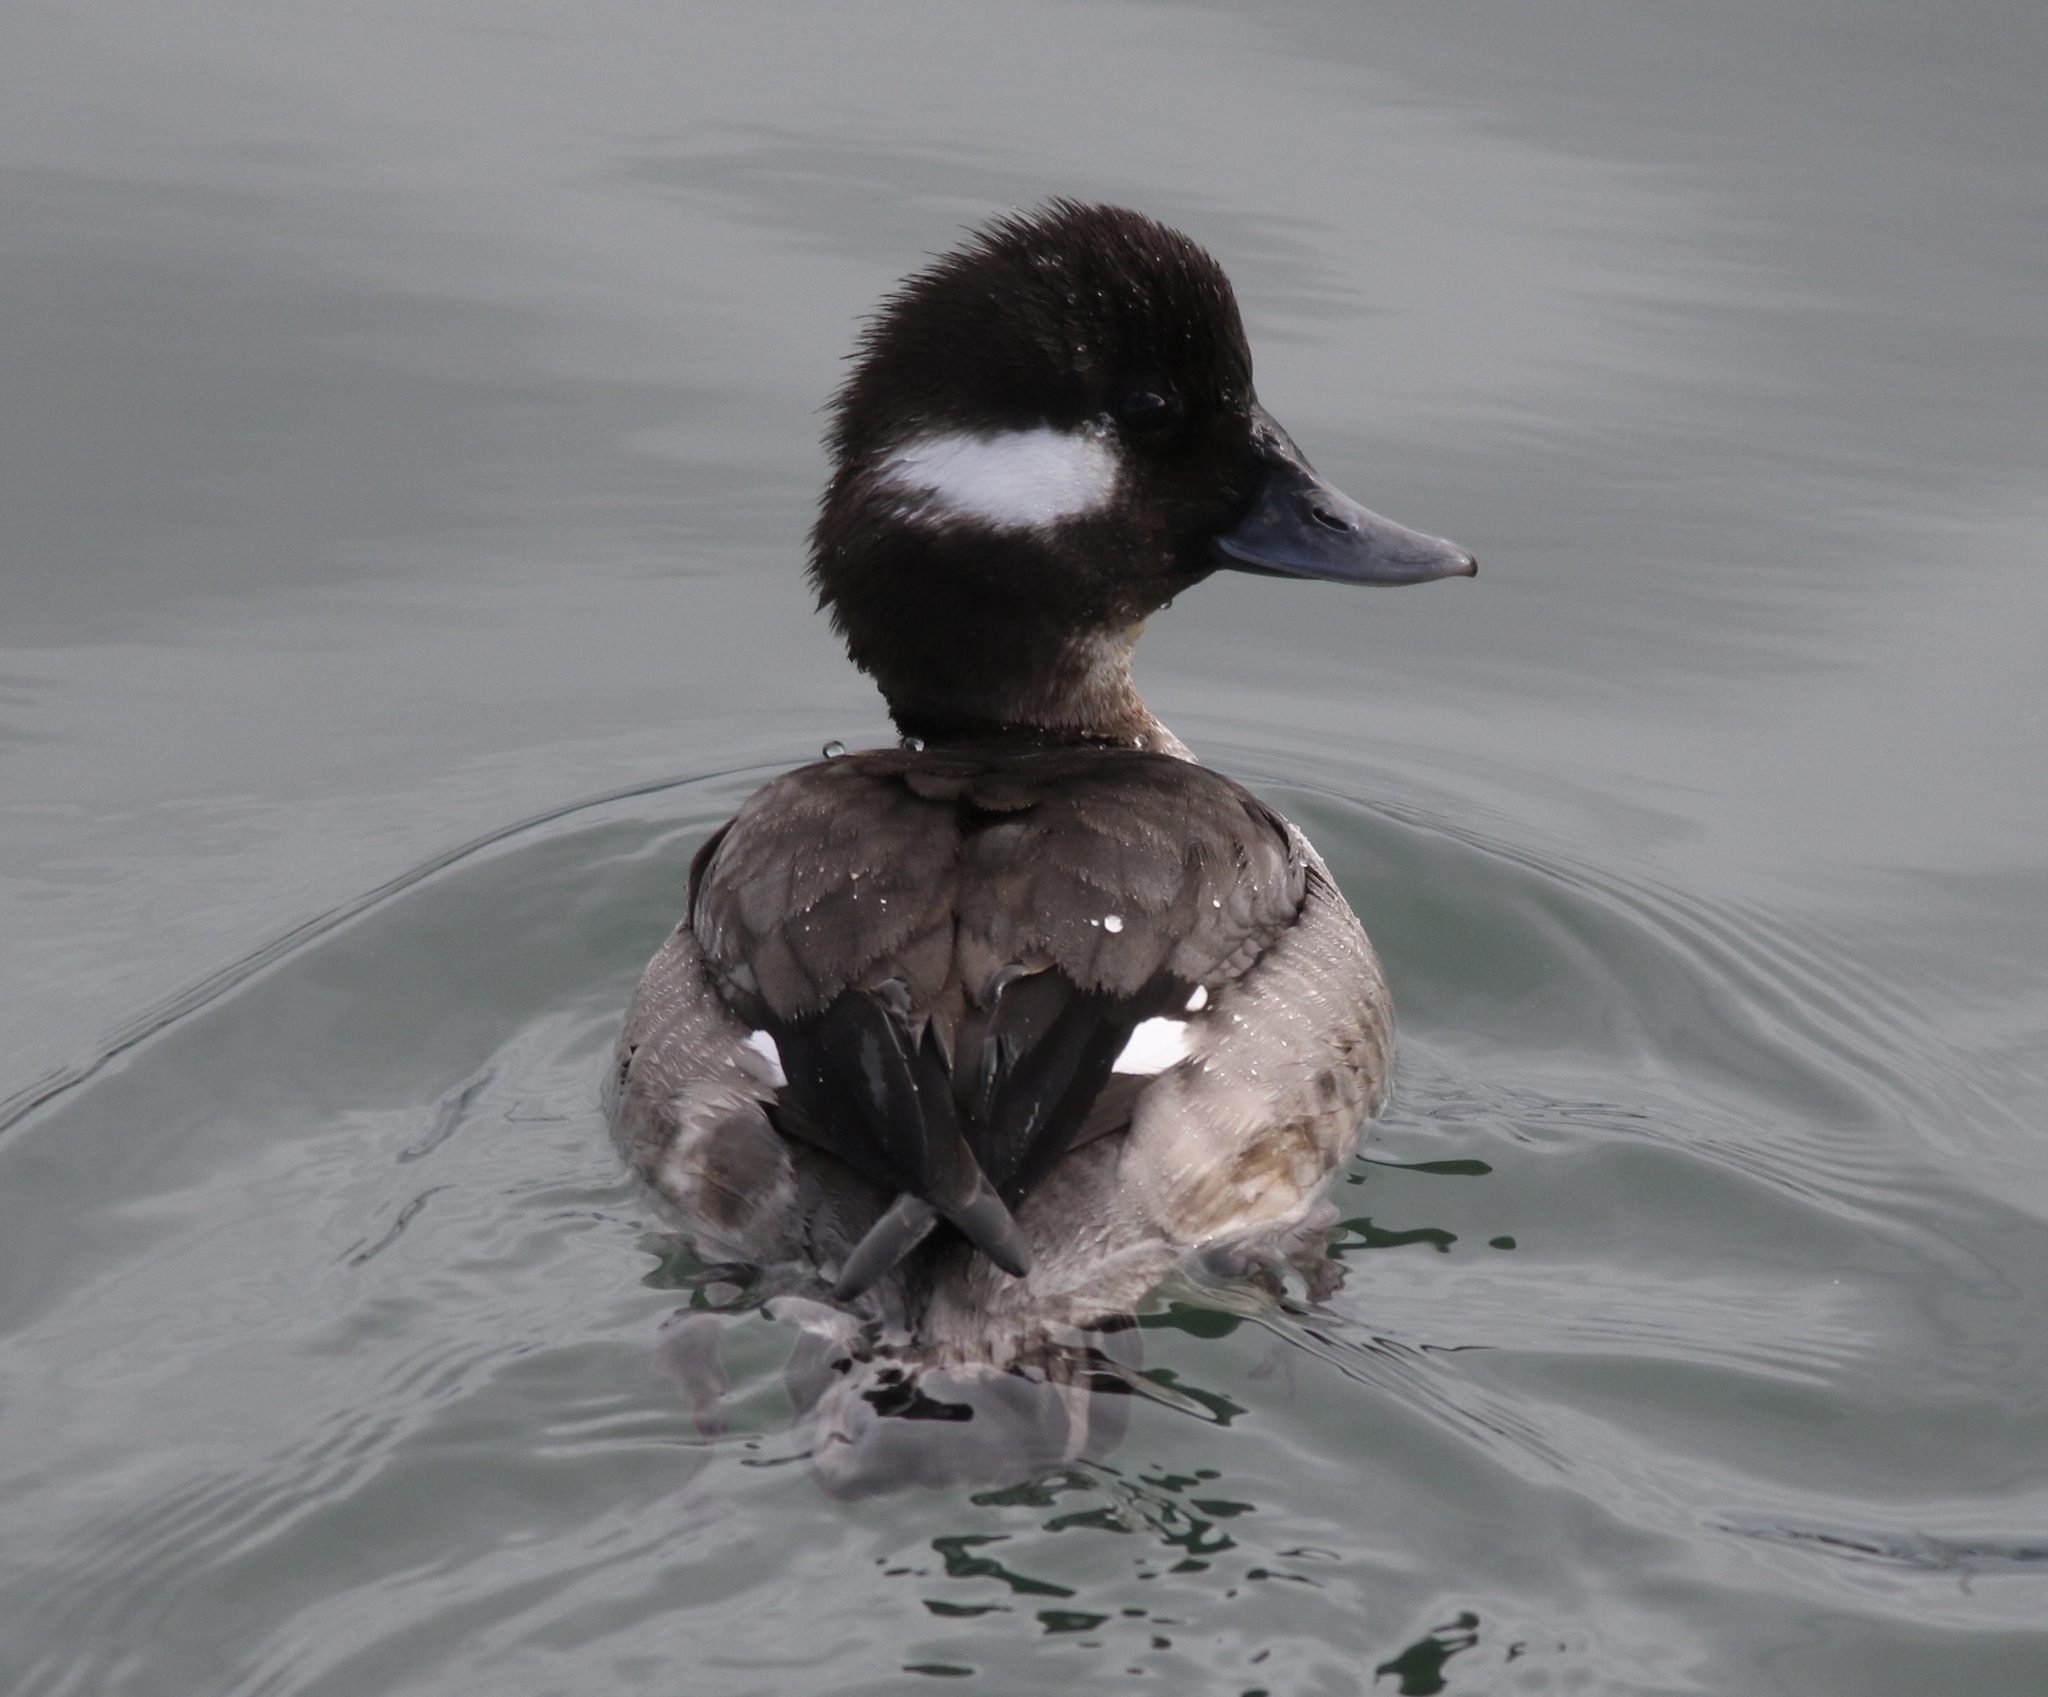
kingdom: Animalia
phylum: Chordata
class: Aves
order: Anseriformes
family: Anatidae
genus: Bucephala
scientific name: Bucephala albeola
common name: Bufflehead
